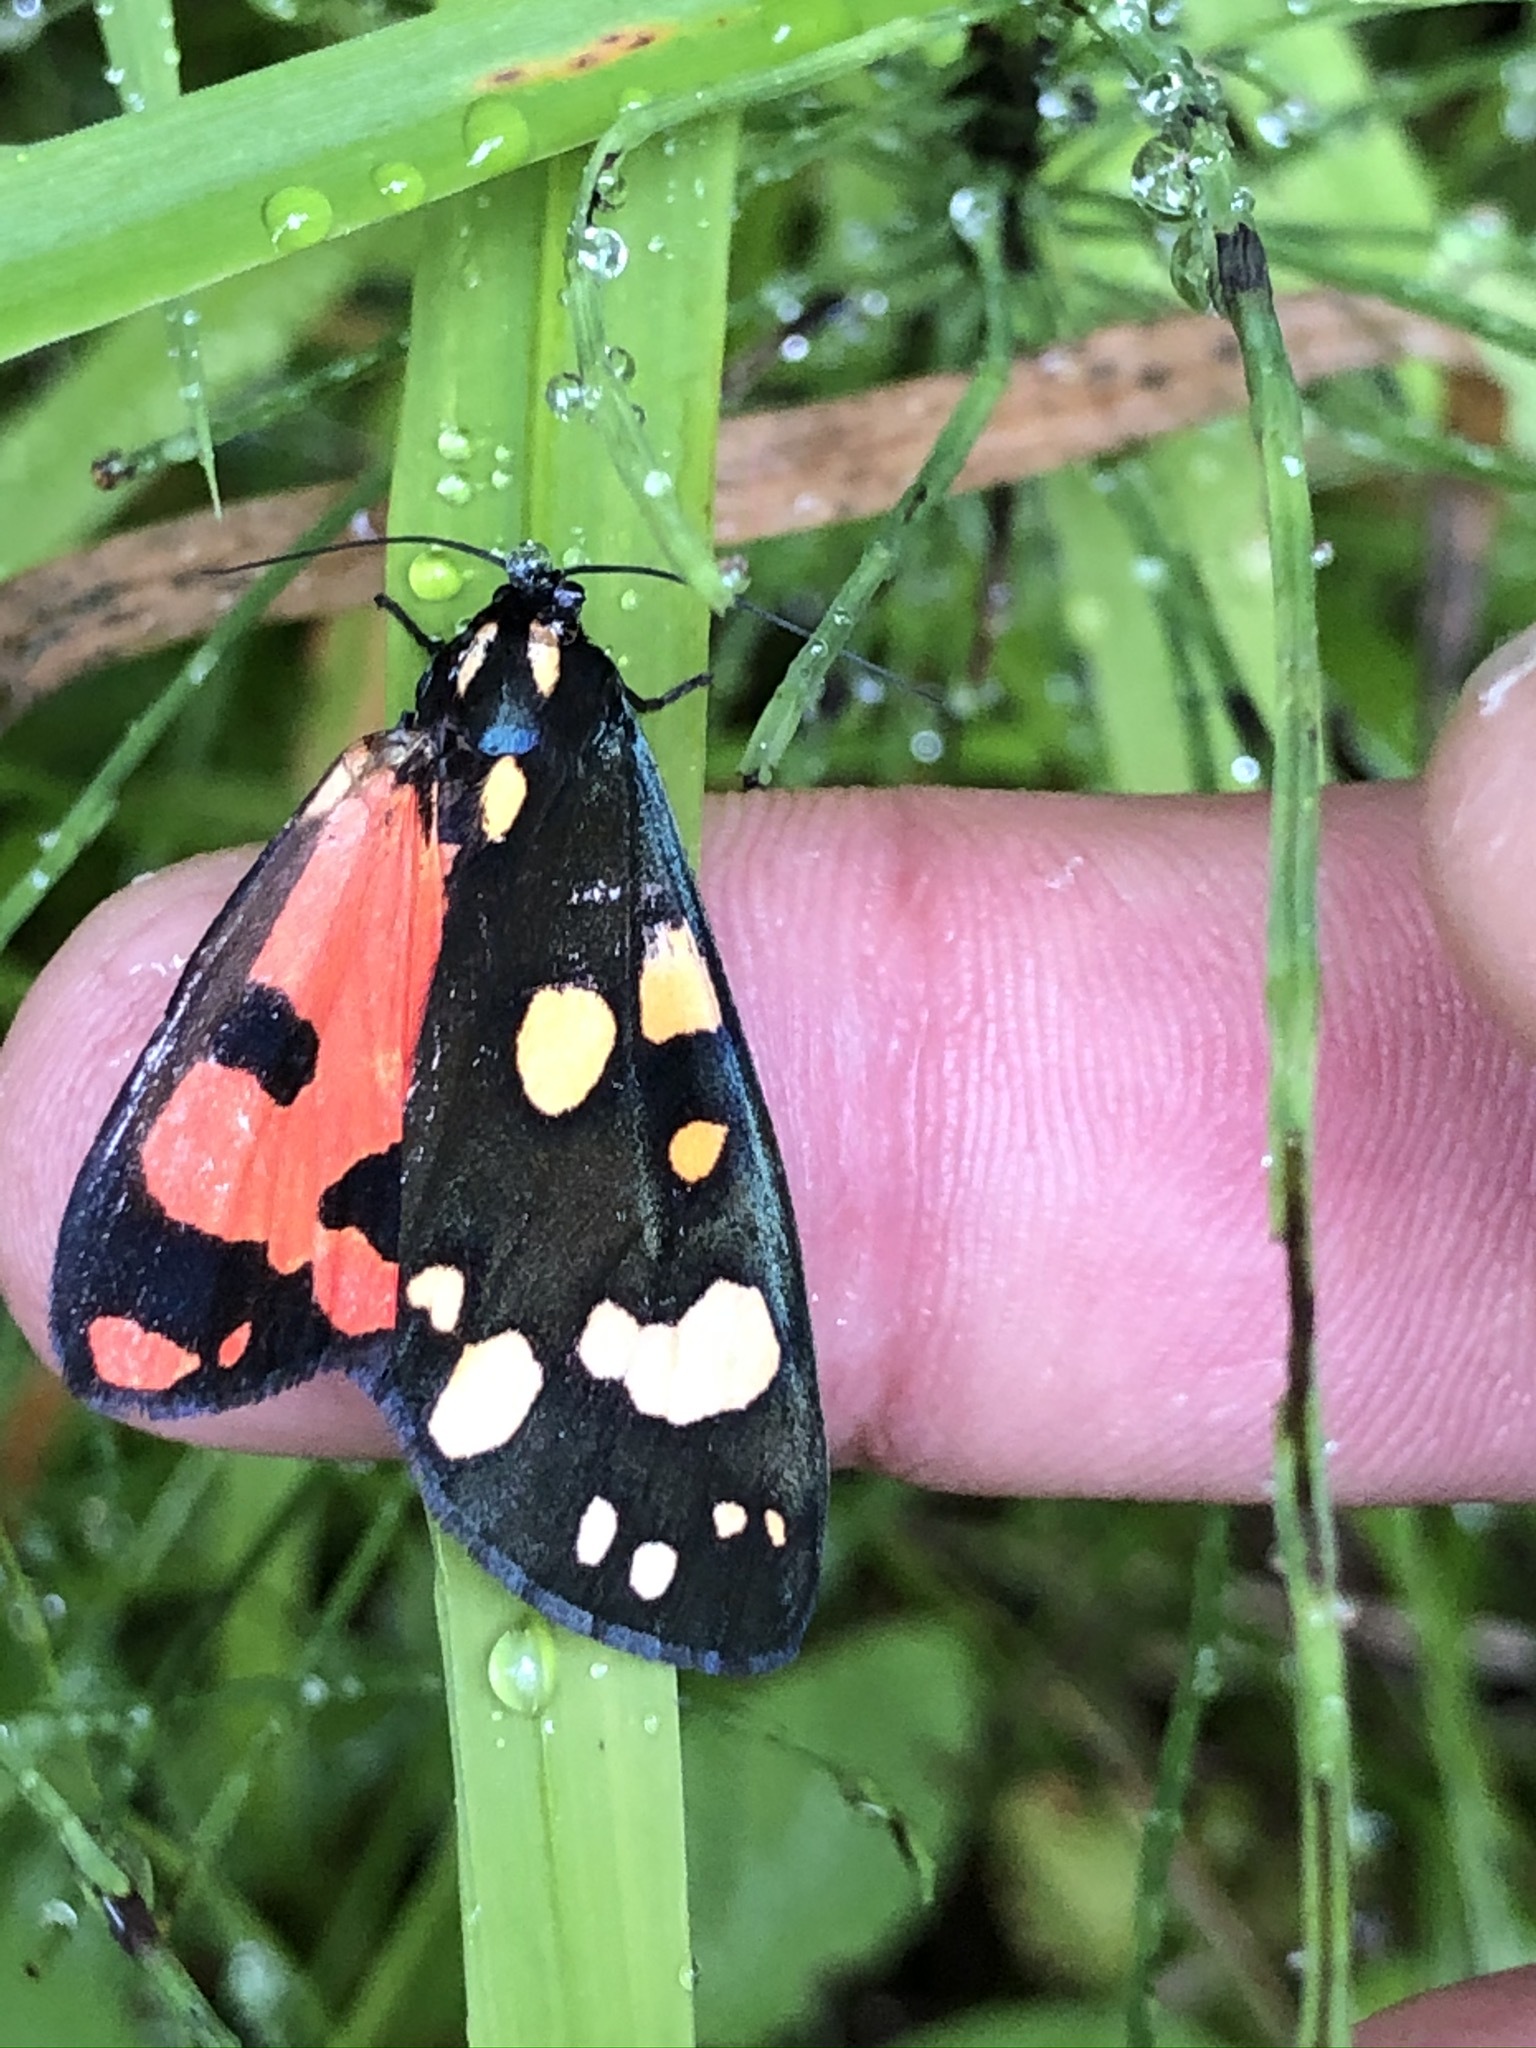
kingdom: Animalia
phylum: Arthropoda
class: Insecta
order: Lepidoptera
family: Erebidae
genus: Callimorpha
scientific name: Callimorpha dominula
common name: Scarlet tiger
